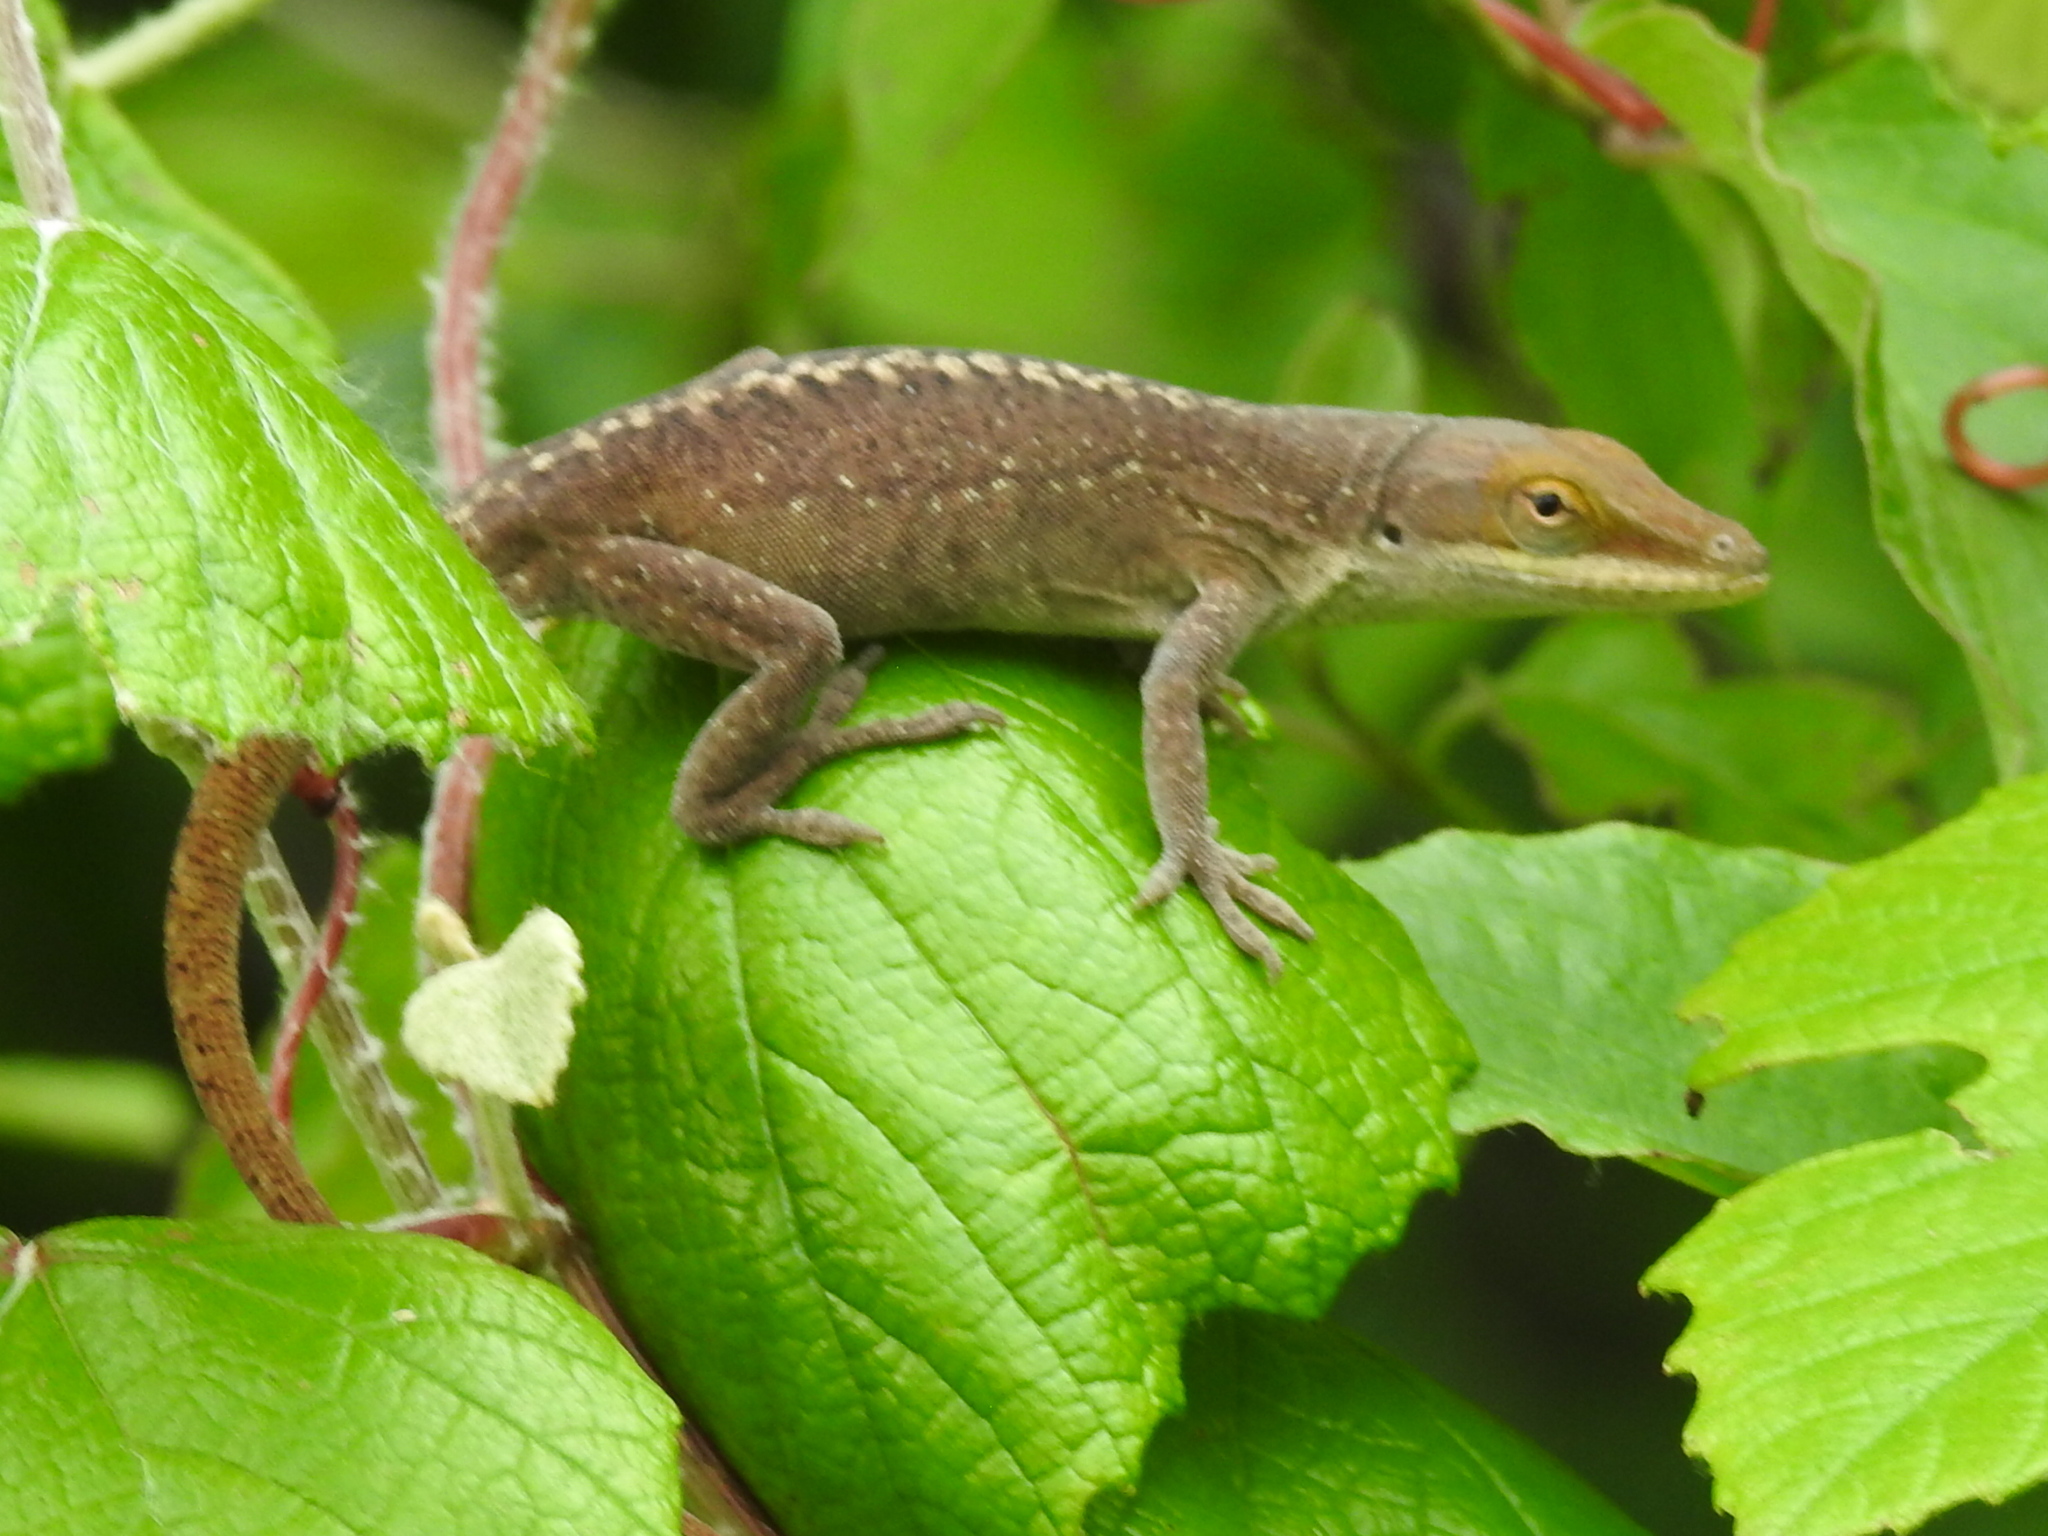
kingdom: Animalia
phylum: Chordata
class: Squamata
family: Dactyloidae
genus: Anolis
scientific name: Anolis carolinensis
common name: Green anole
